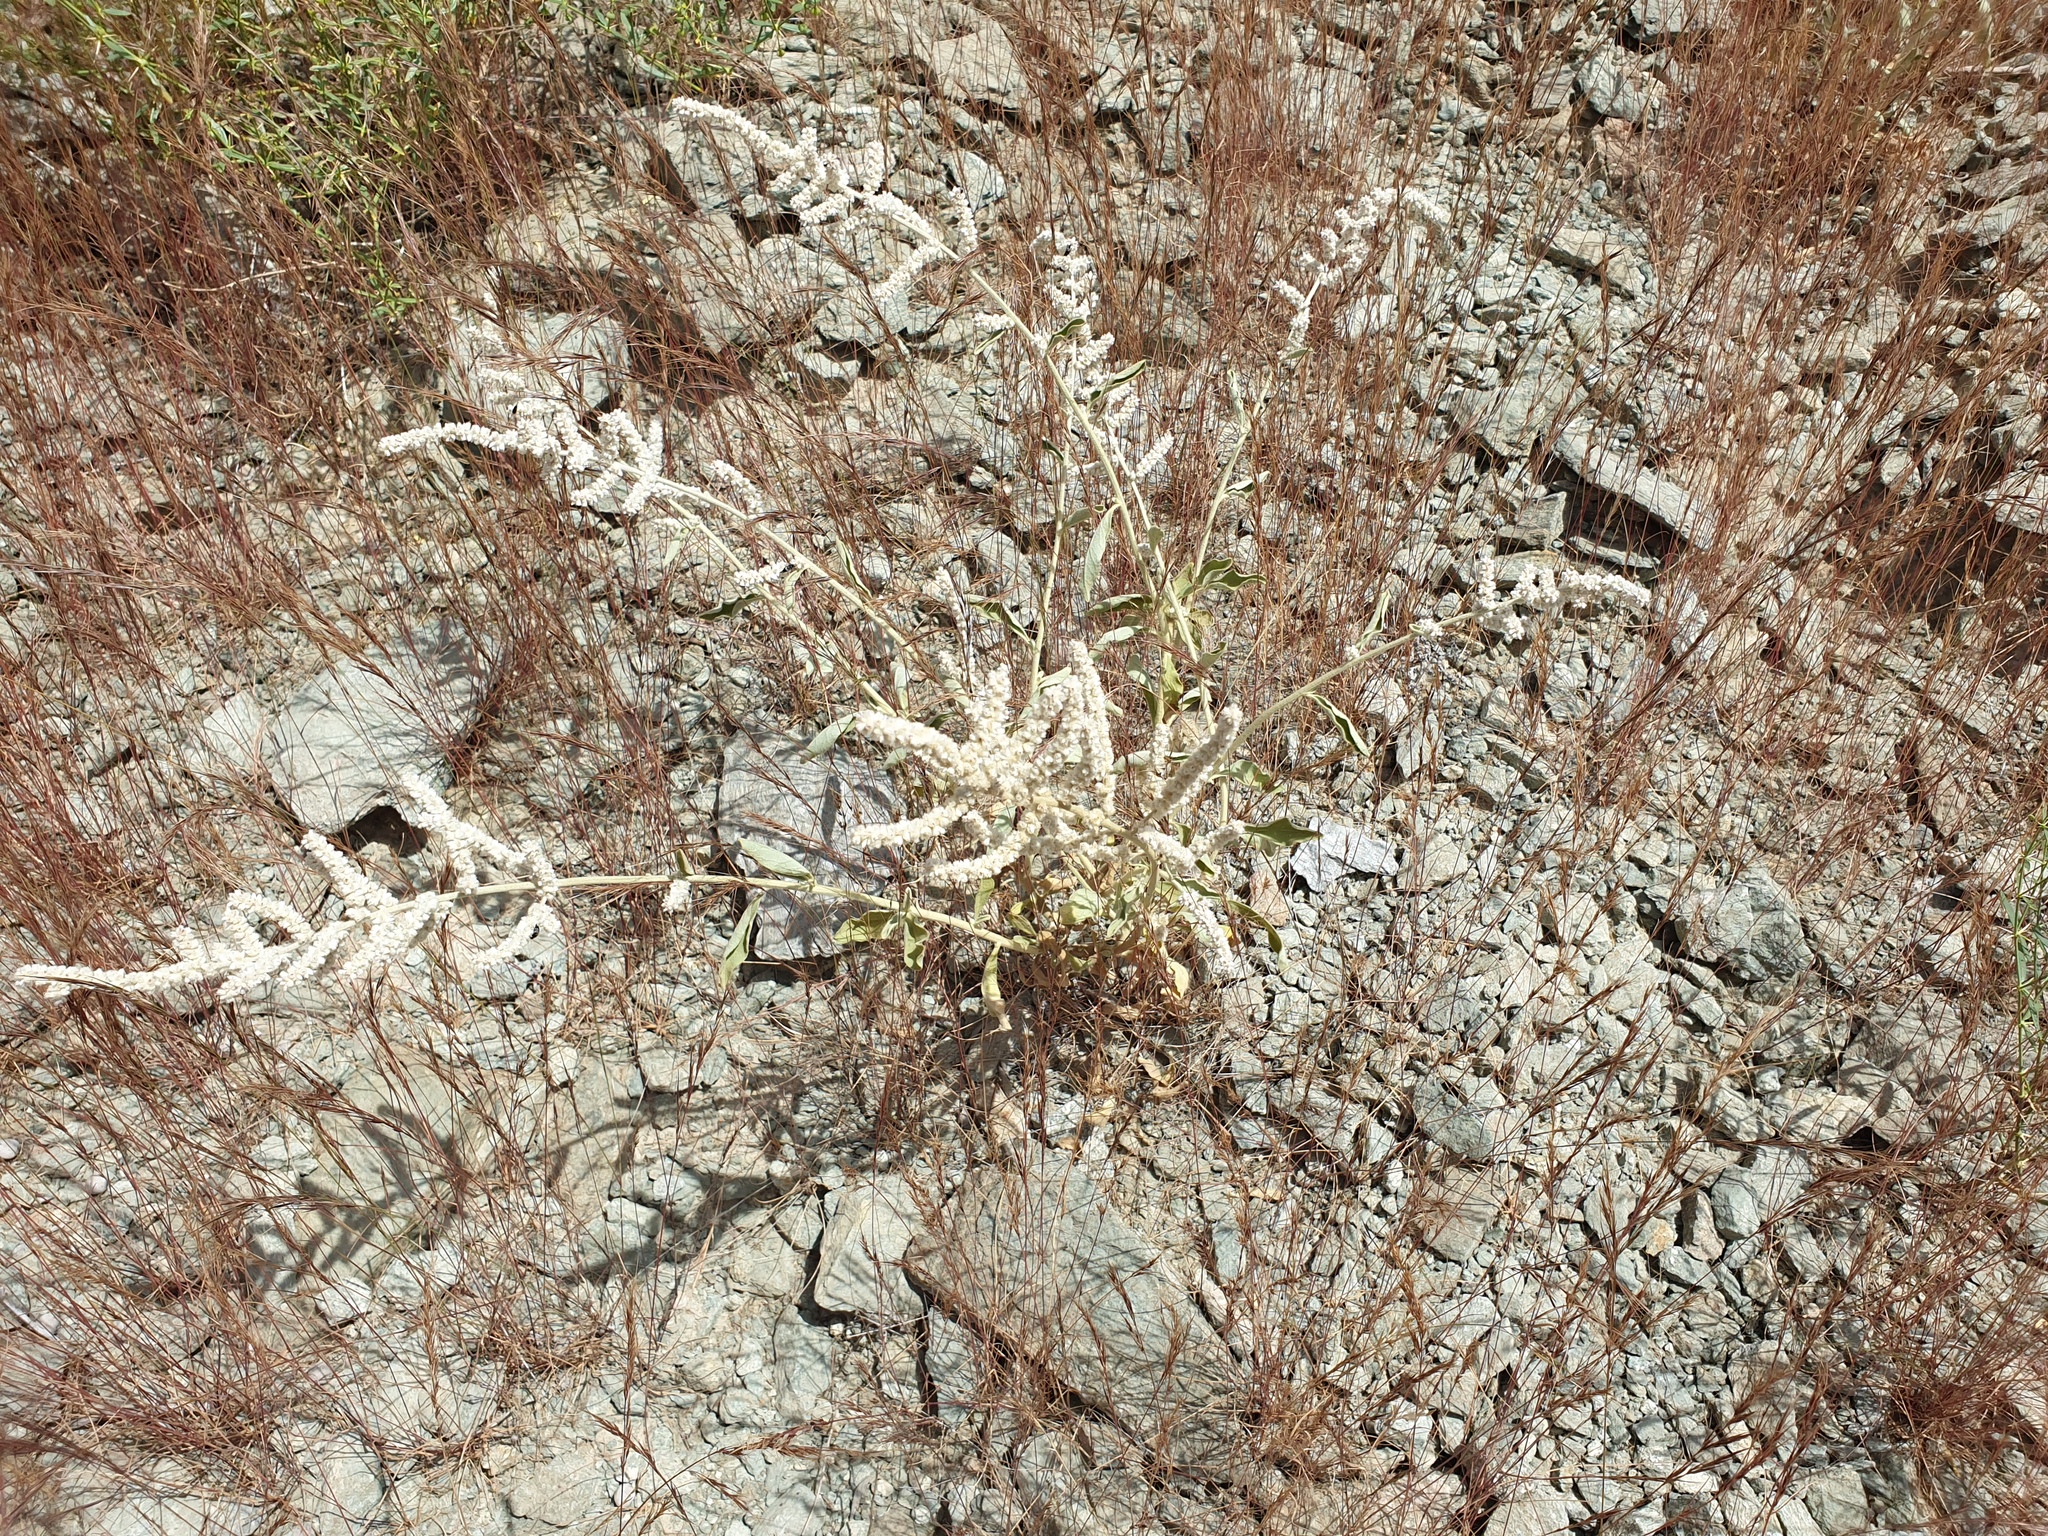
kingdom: Plantae
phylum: Tracheophyta
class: Magnoliopsida
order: Caryophyllales
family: Amaranthaceae
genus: Aerva
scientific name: Aerva javanica
